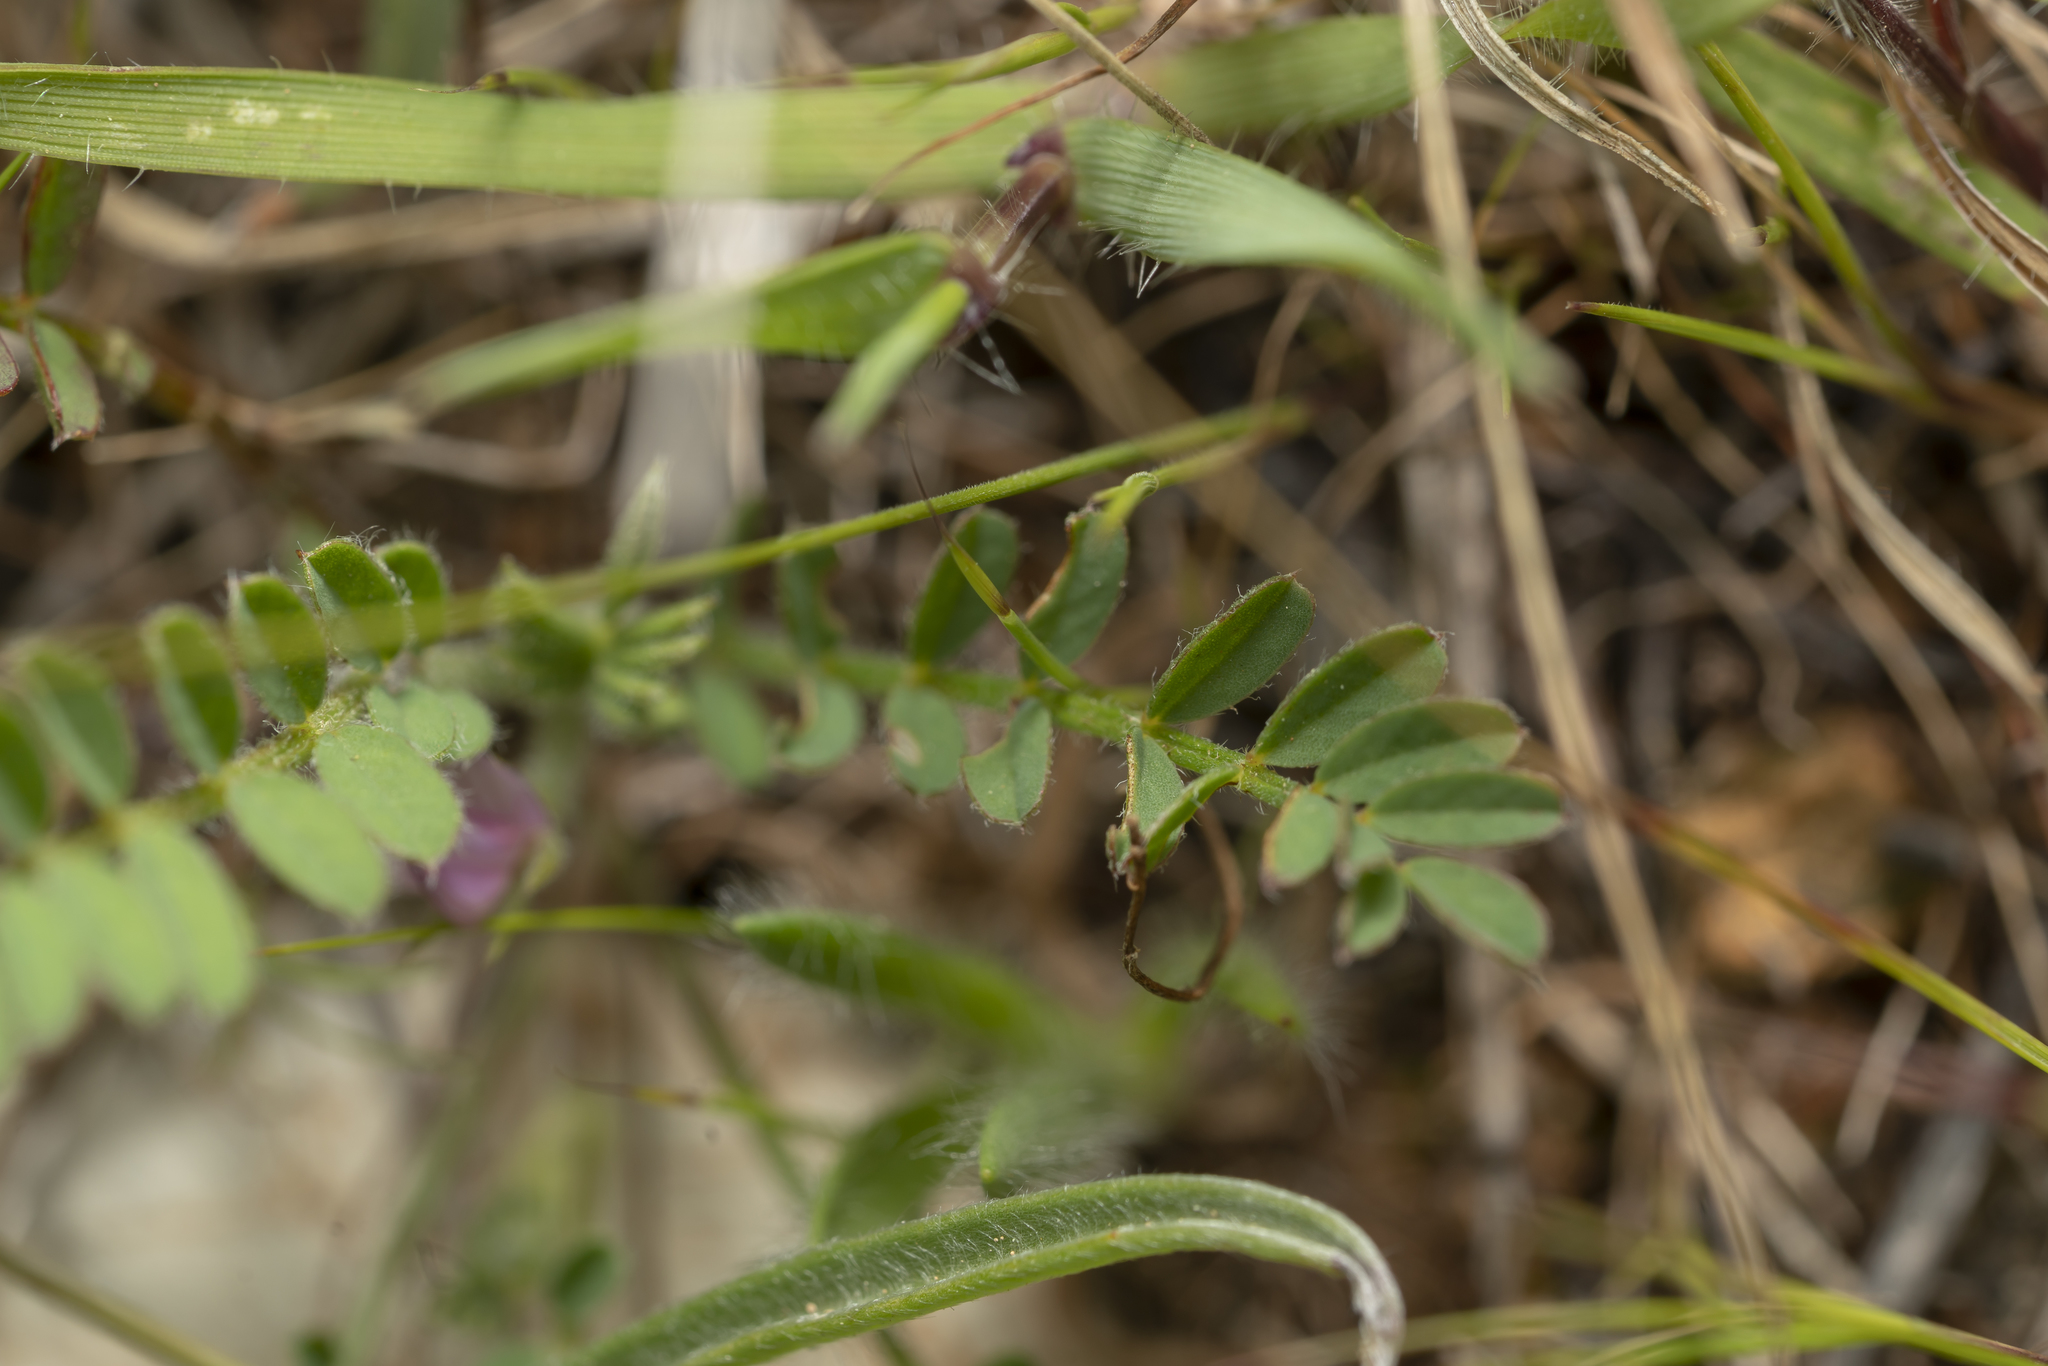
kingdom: Plantae
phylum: Tracheophyta
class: Magnoliopsida
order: Fabales
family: Fabaceae
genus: Onobrychis
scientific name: Onobrychis
